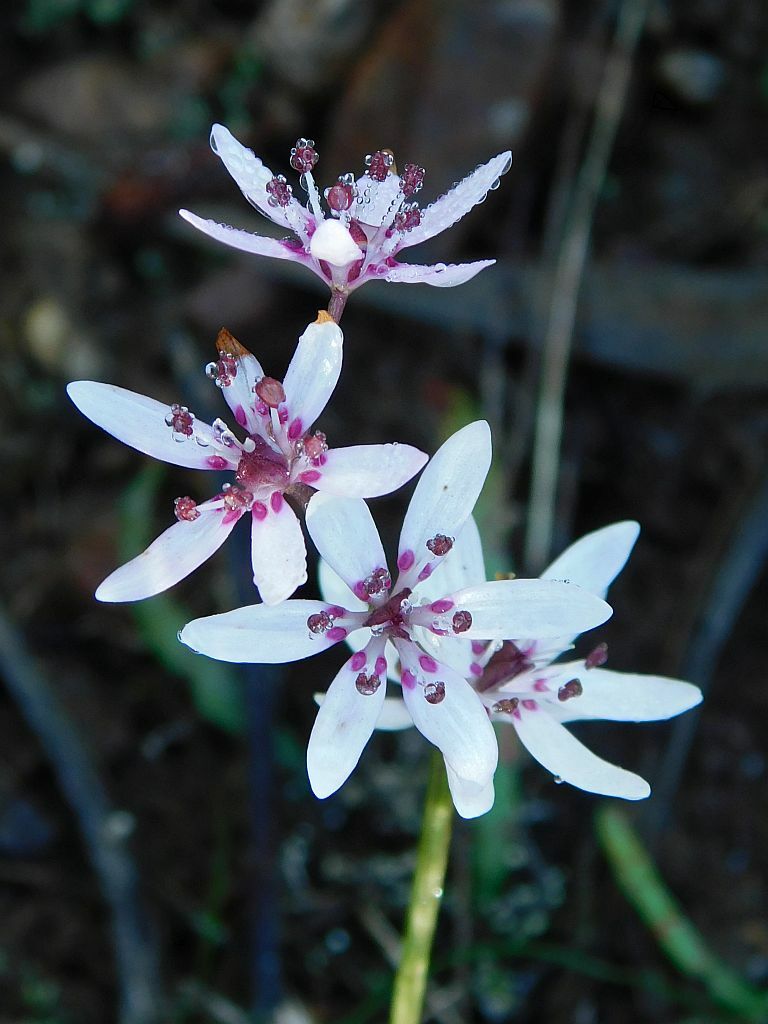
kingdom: Plantae
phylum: Tracheophyta
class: Liliopsida
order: Liliales
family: Colchicaceae
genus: Wurmbea
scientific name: Wurmbea punctata
